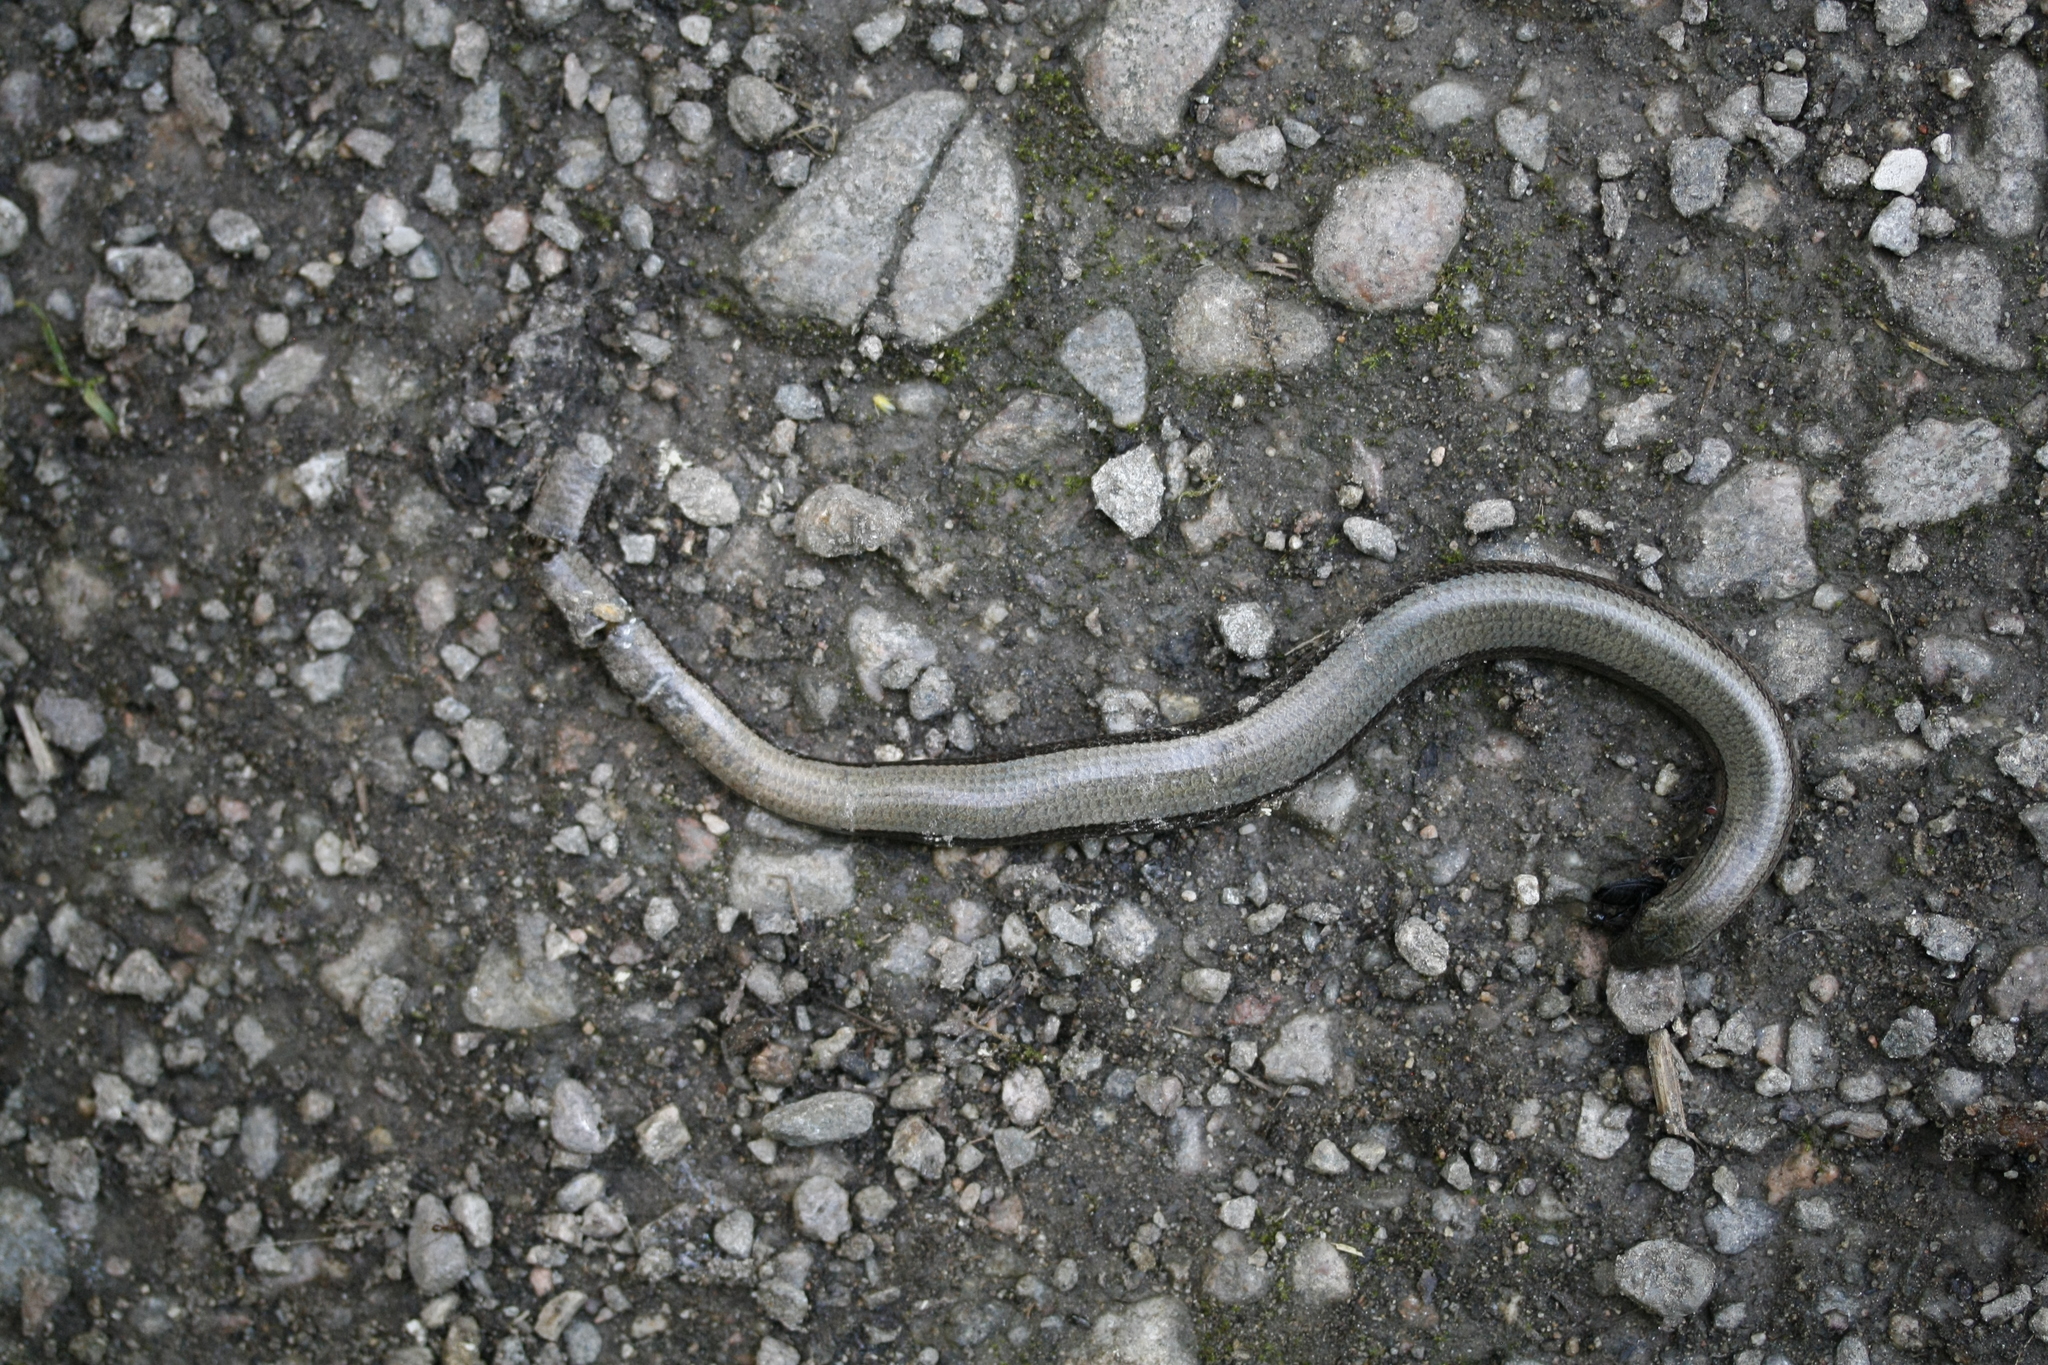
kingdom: Animalia
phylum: Chordata
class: Squamata
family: Anguidae
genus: Anguis
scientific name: Anguis fragilis
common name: Slow worm
